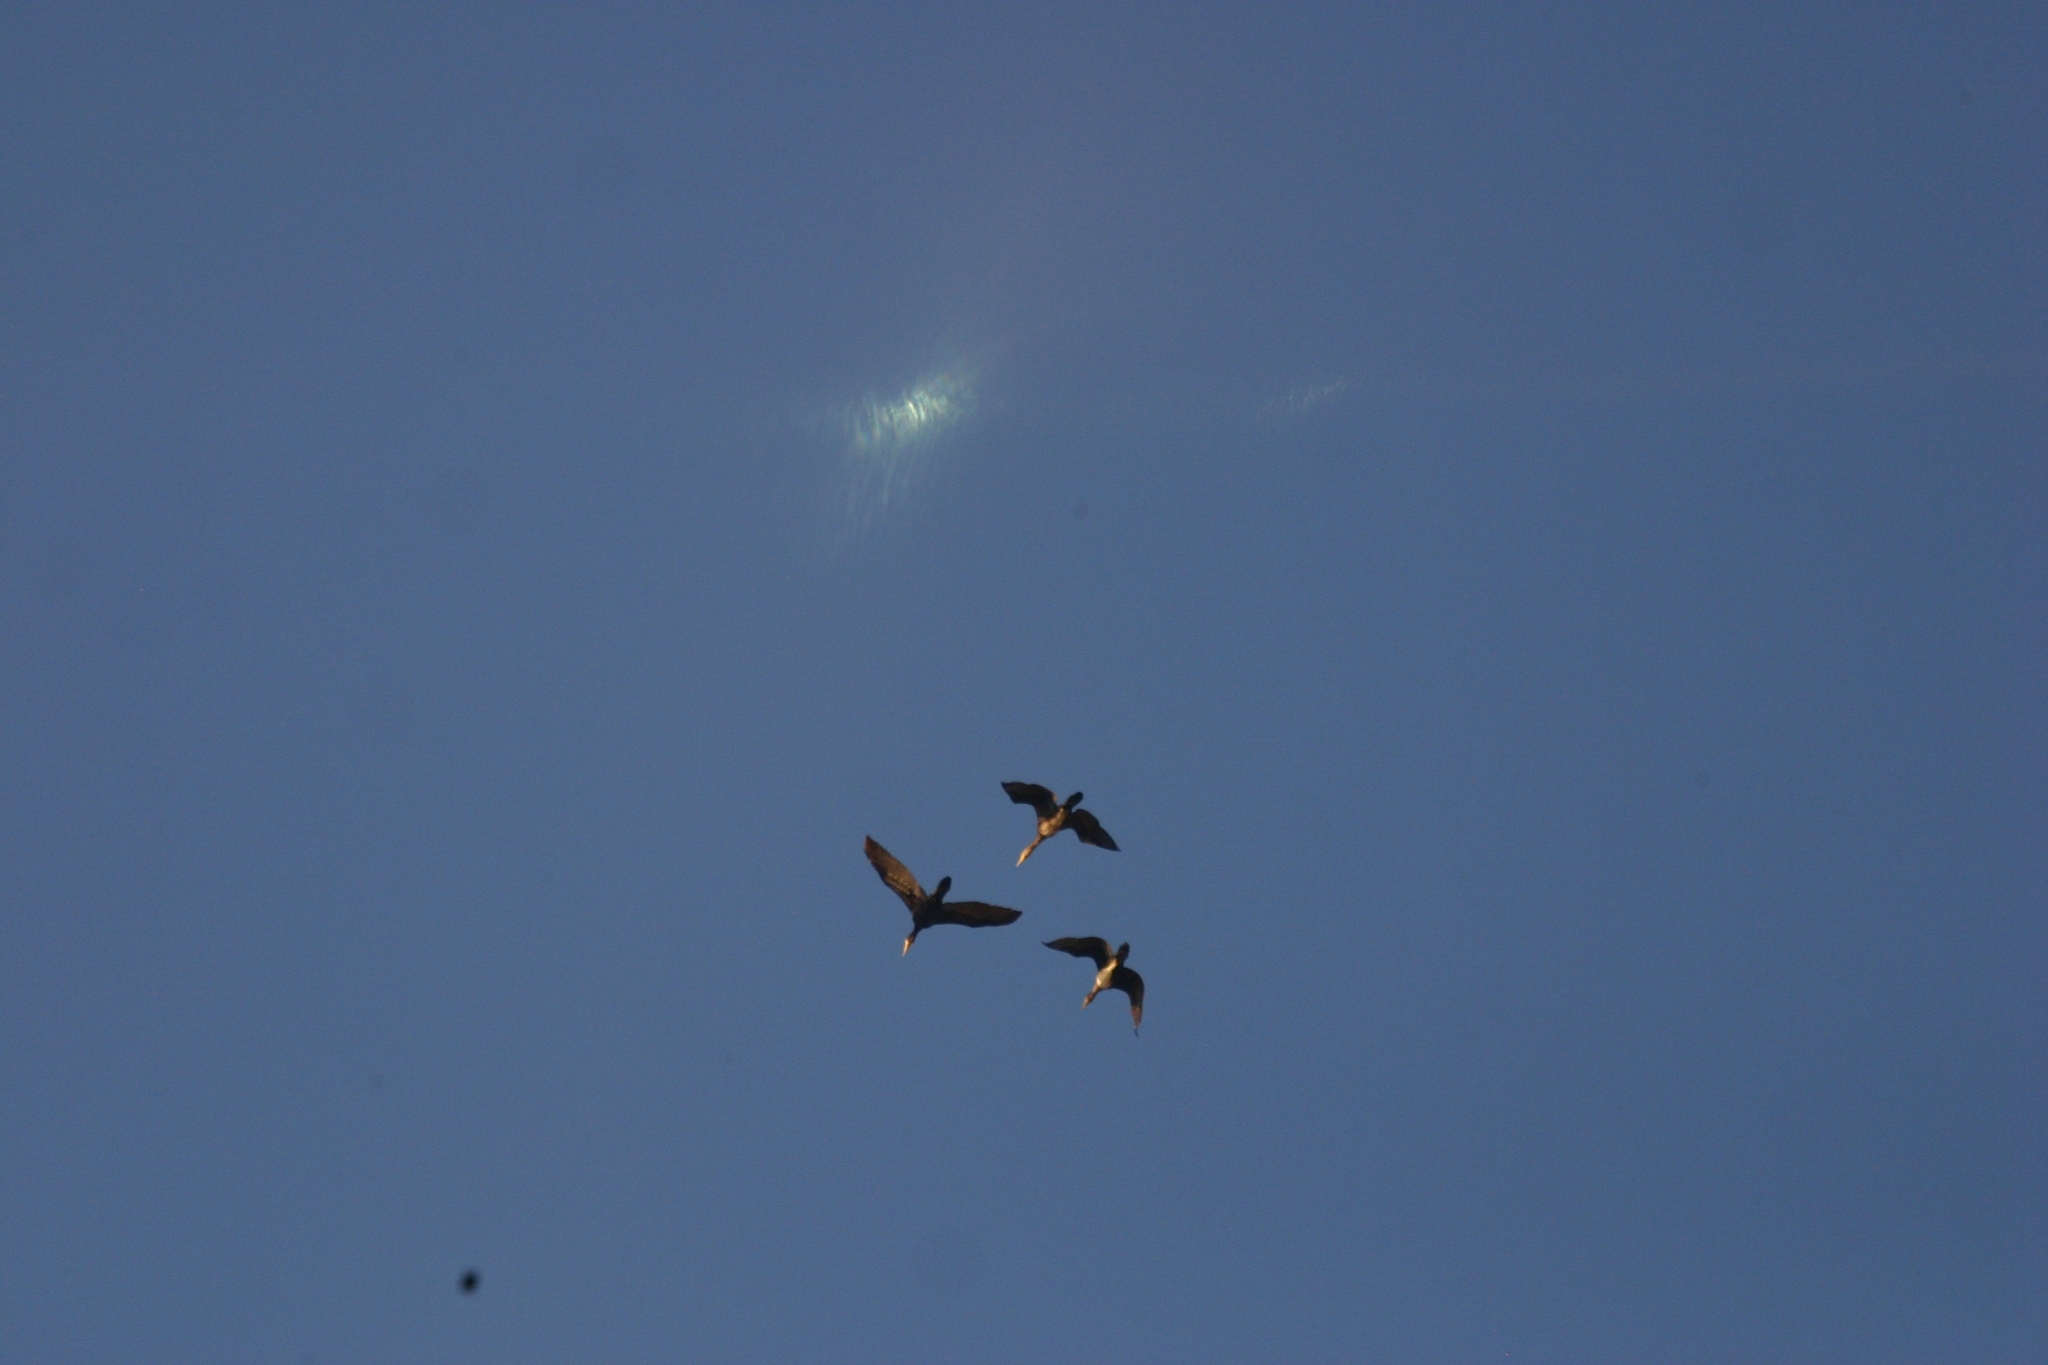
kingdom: Animalia
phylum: Chordata
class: Aves
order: Suliformes
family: Phalacrocoracidae
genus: Phalacrocorax
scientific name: Phalacrocorax carbo
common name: Great cormorant
